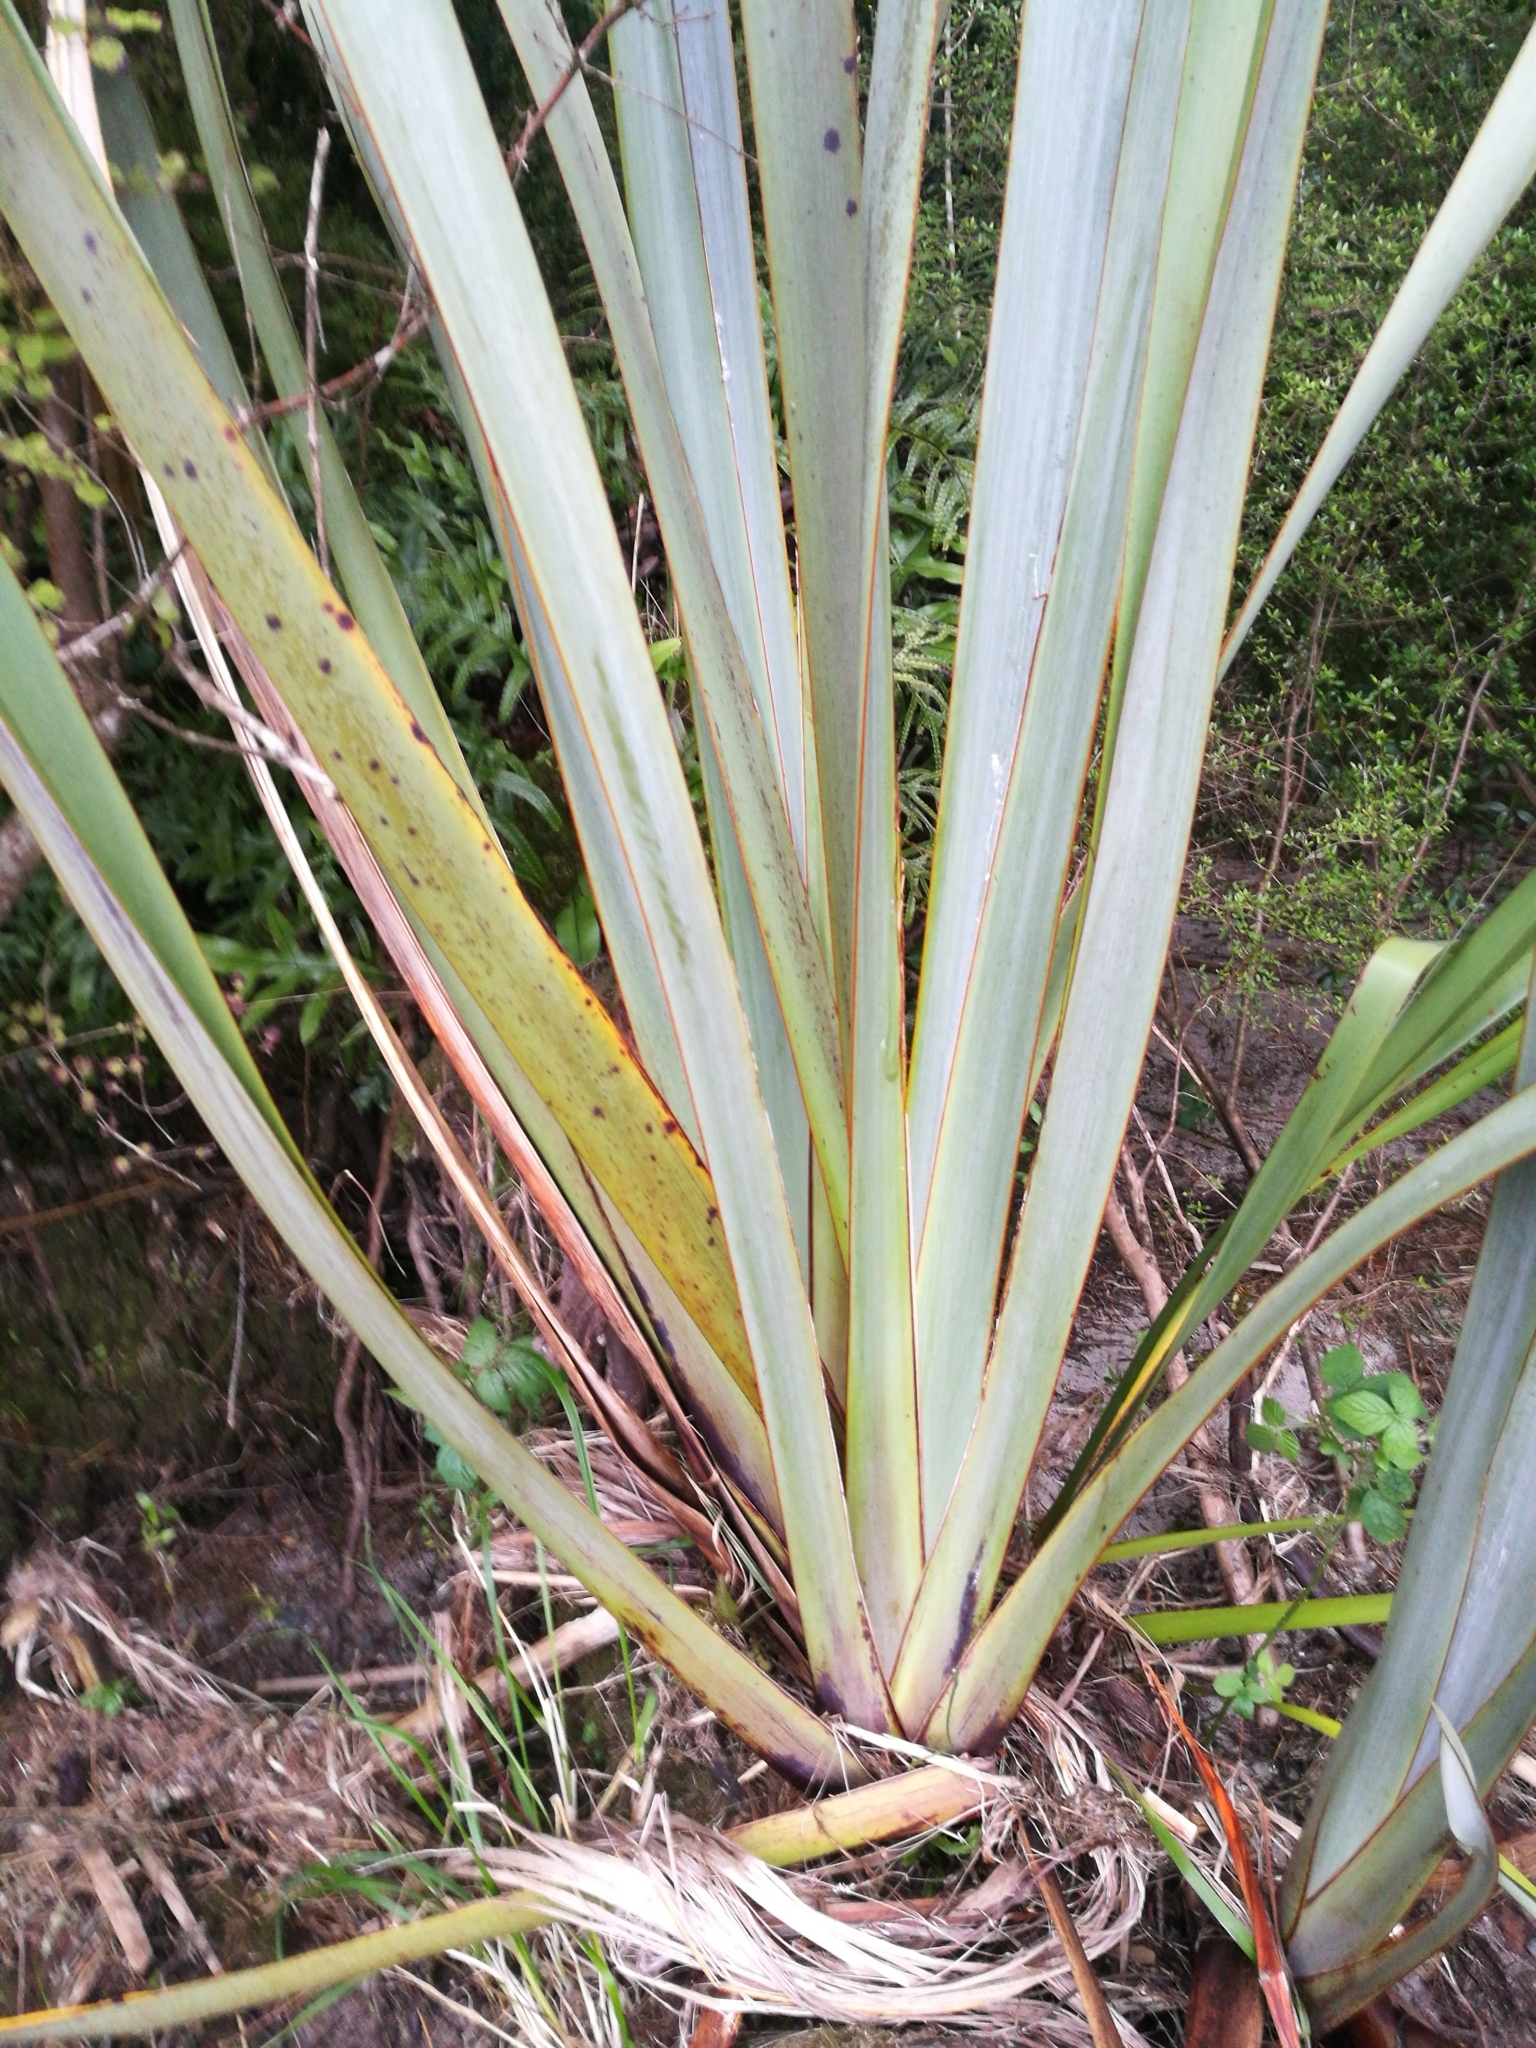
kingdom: Plantae
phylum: Tracheophyta
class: Liliopsida
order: Asparagales
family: Asphodelaceae
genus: Phormium
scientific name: Phormium tenax
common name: New zealand flax
